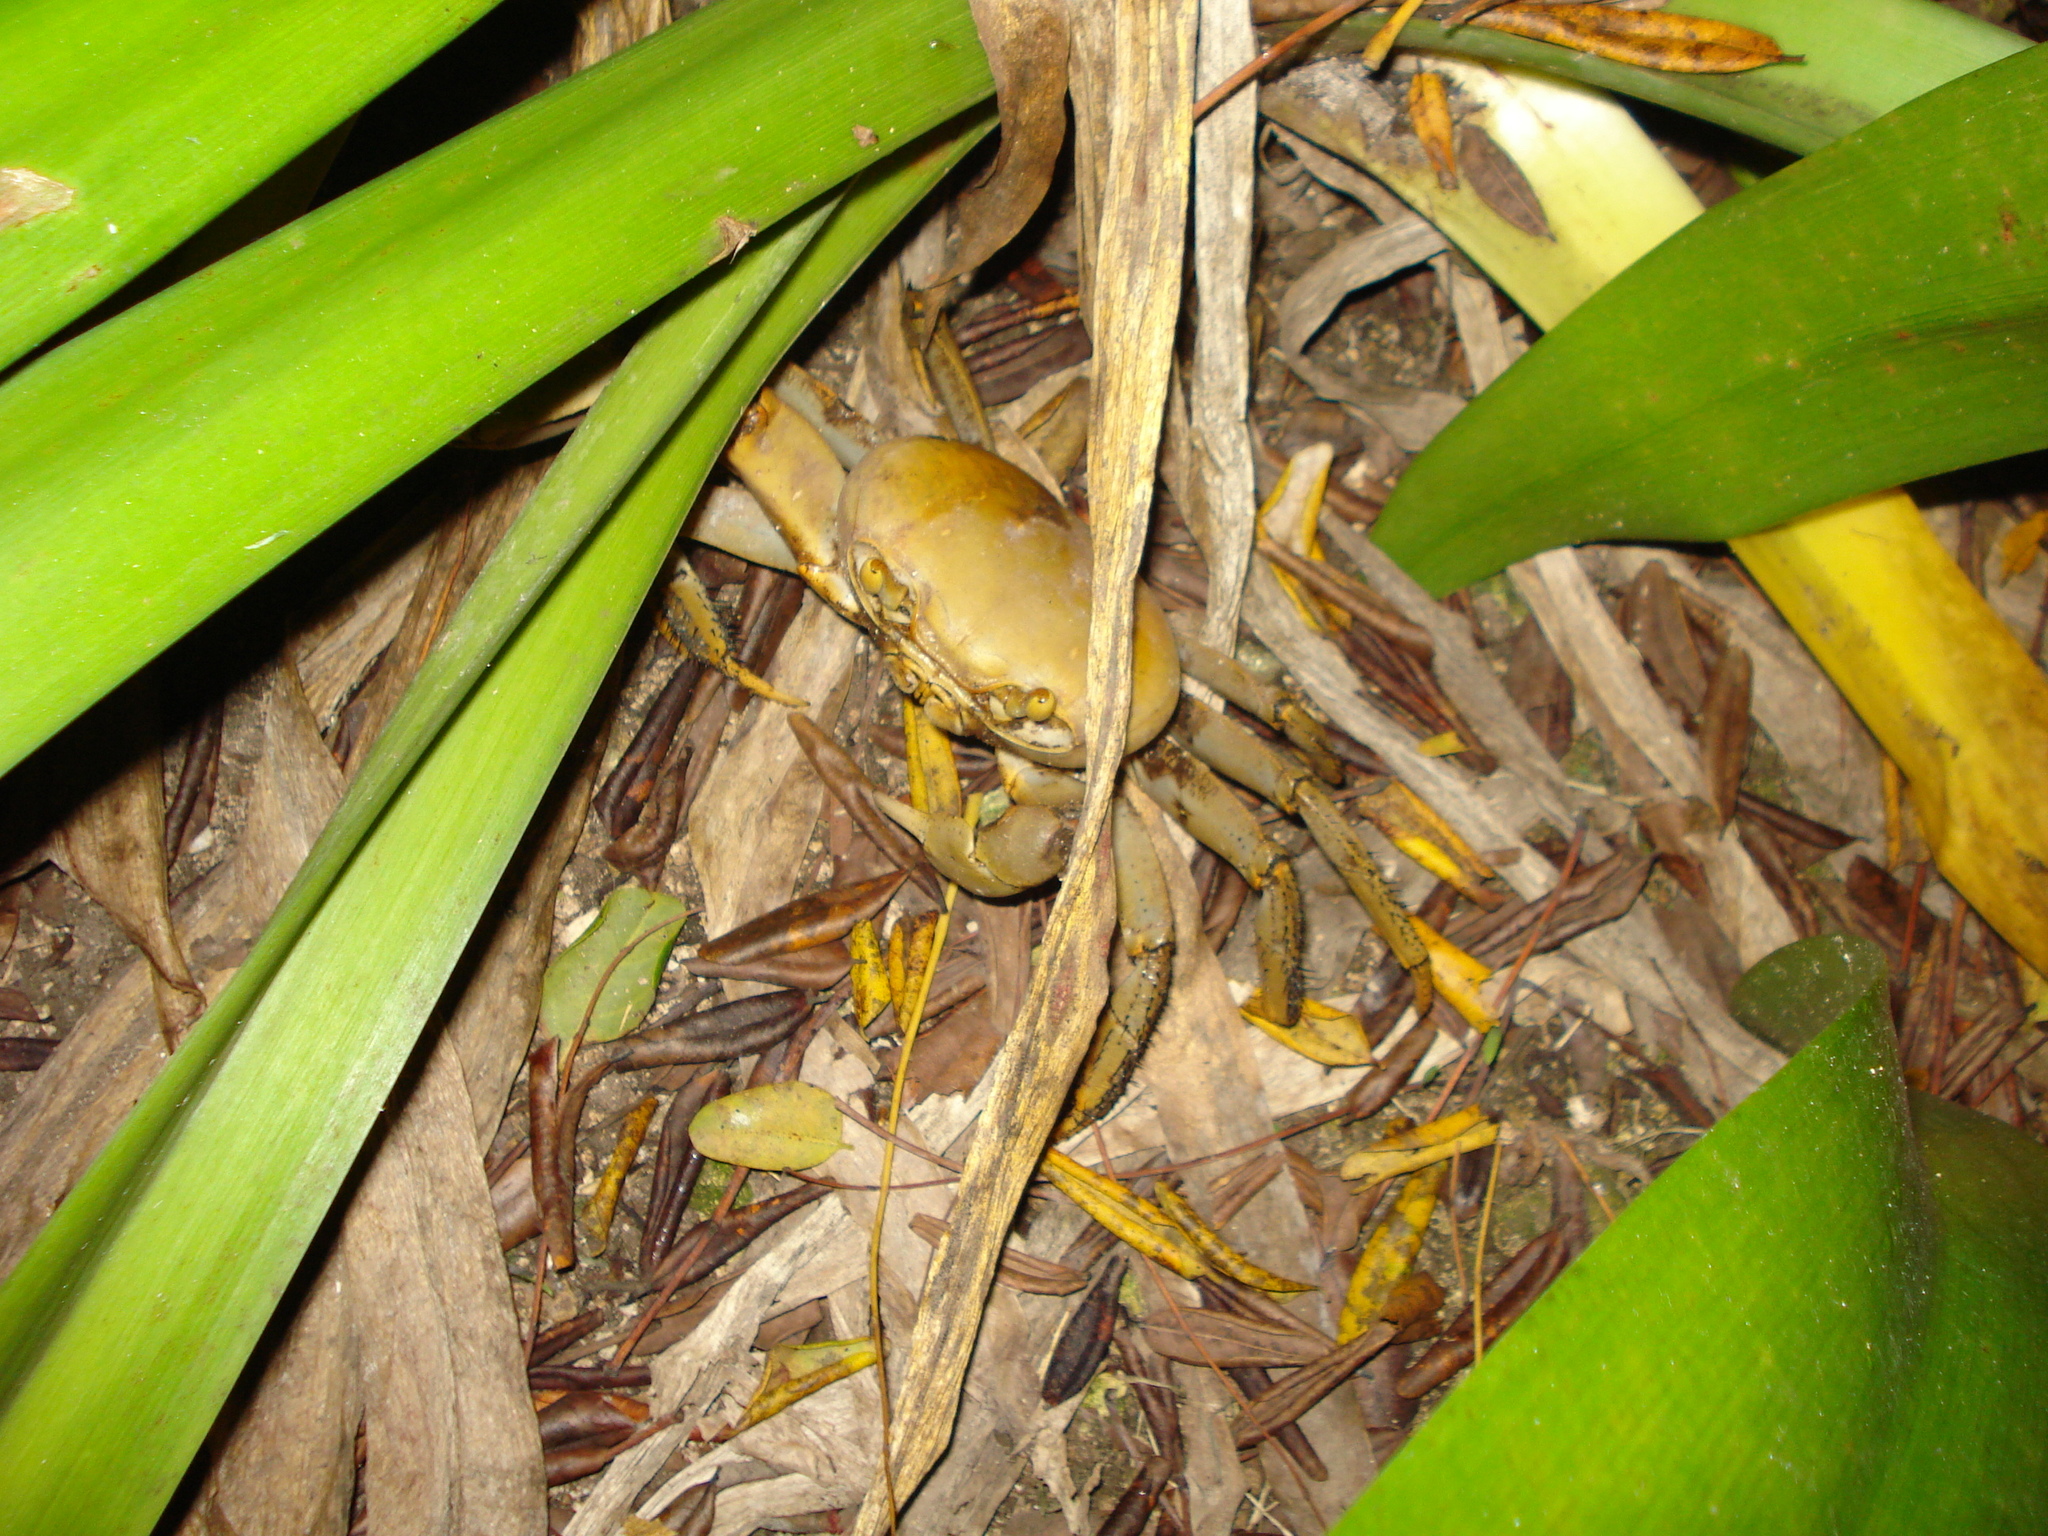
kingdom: Animalia
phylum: Arthropoda
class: Malacostraca
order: Decapoda
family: Gecarcinidae
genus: Cardisoma
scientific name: Cardisoma guanhumi
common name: Great land crab
